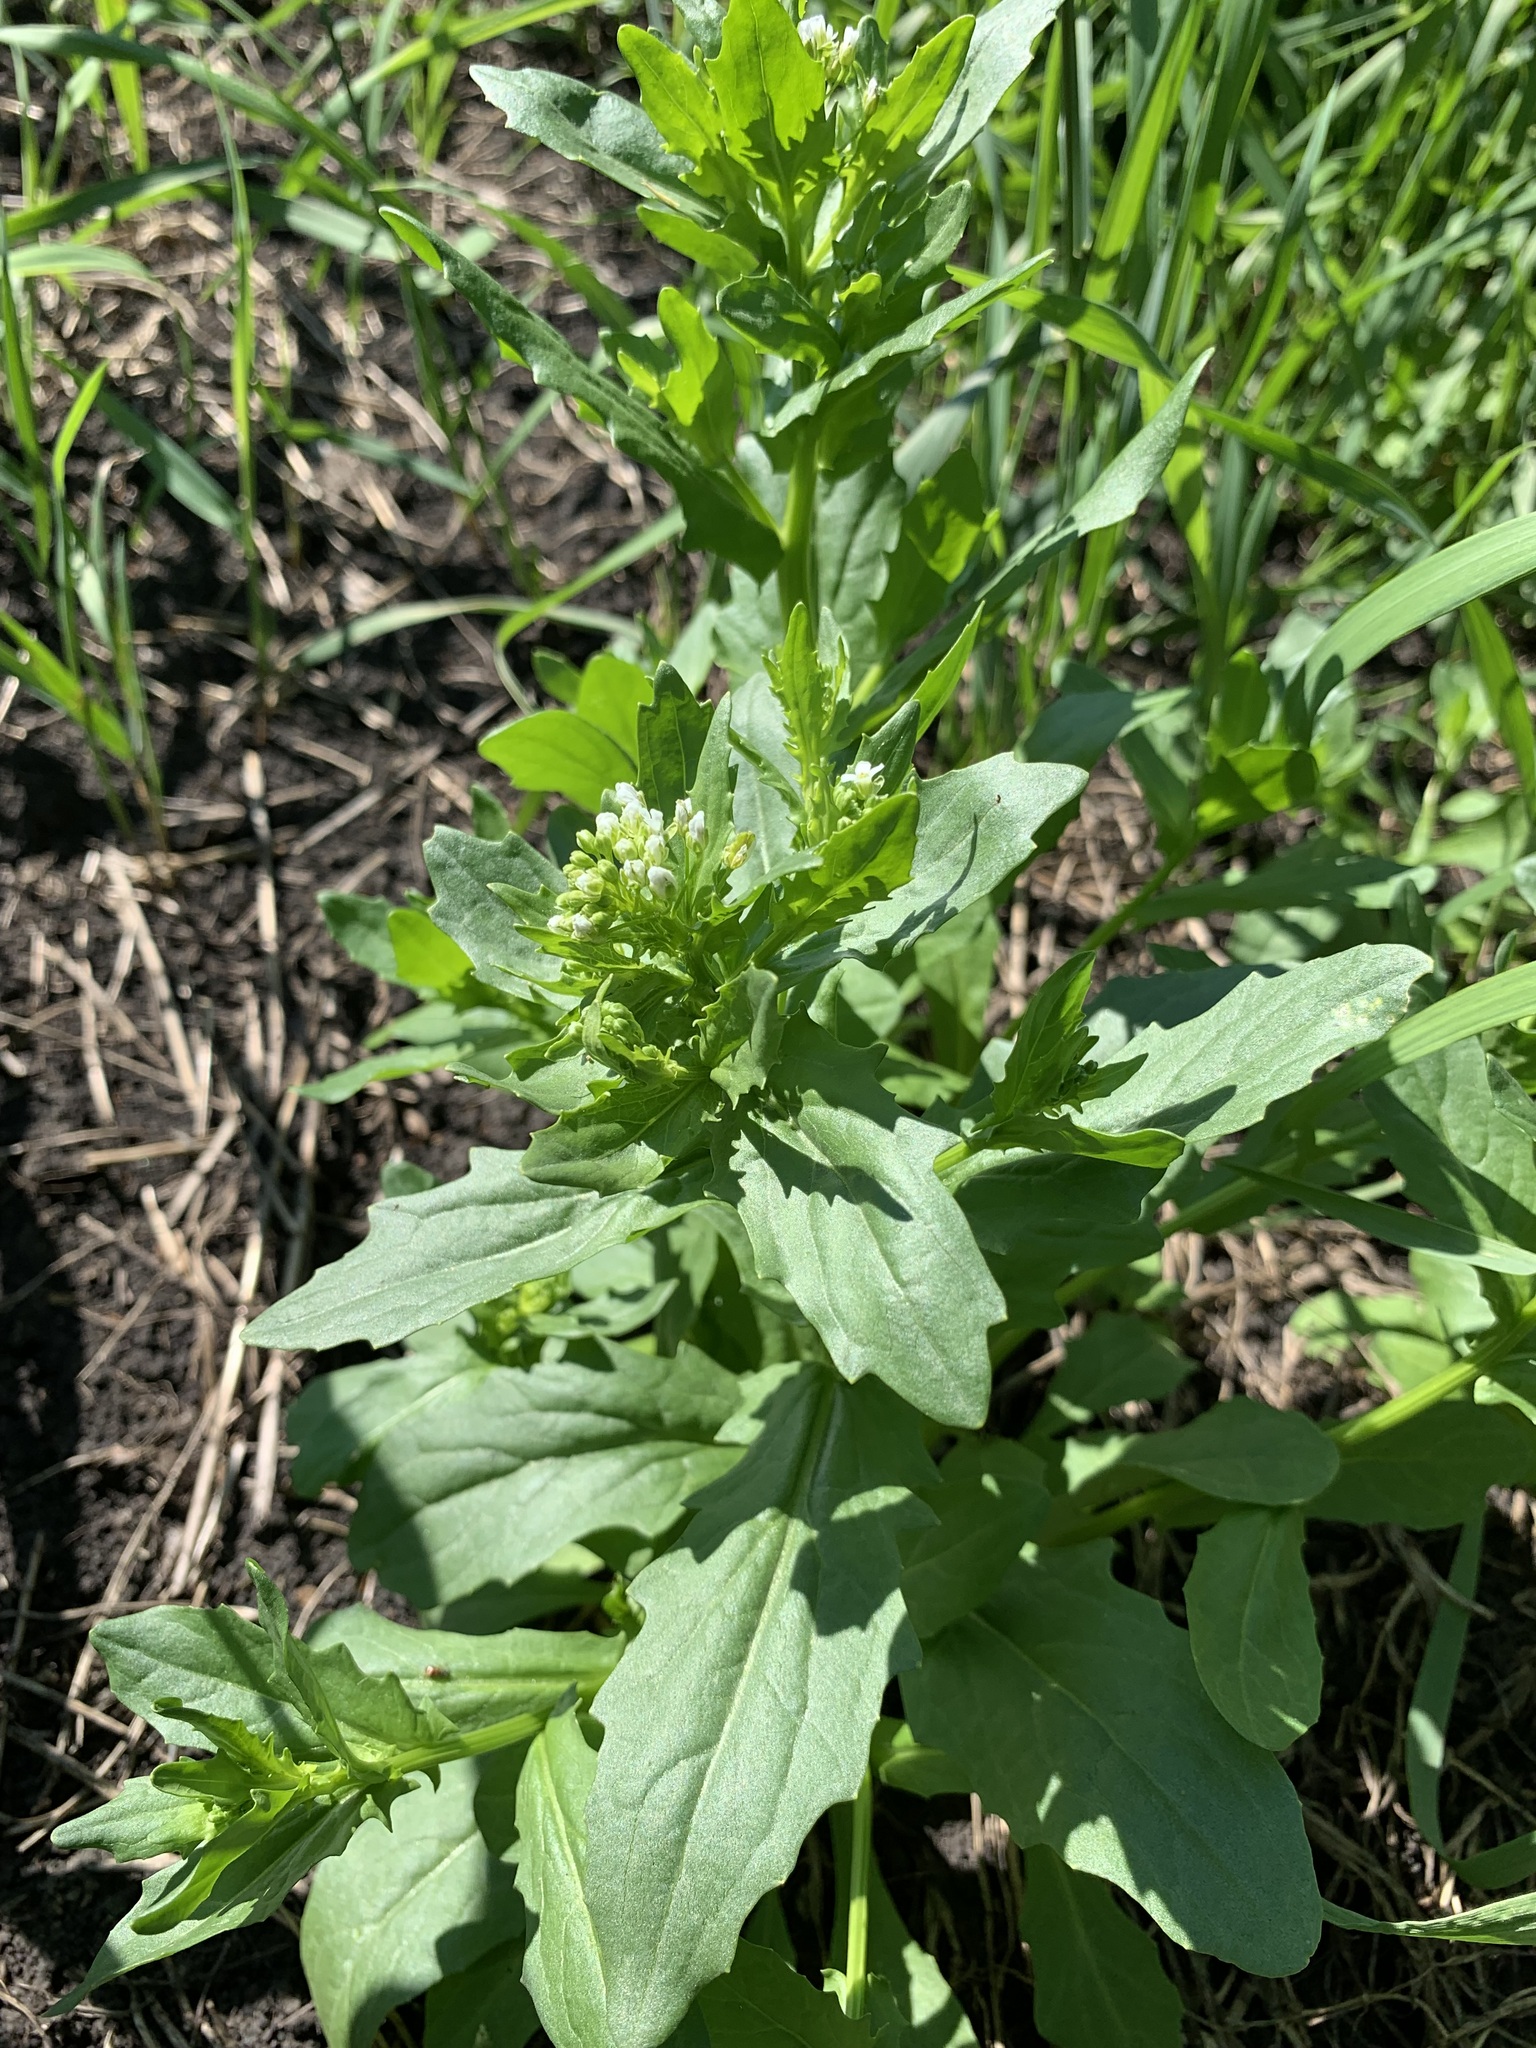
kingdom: Plantae
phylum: Tracheophyta
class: Magnoliopsida
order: Brassicales
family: Brassicaceae
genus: Thlaspi
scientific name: Thlaspi arvense
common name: Field pennycress
